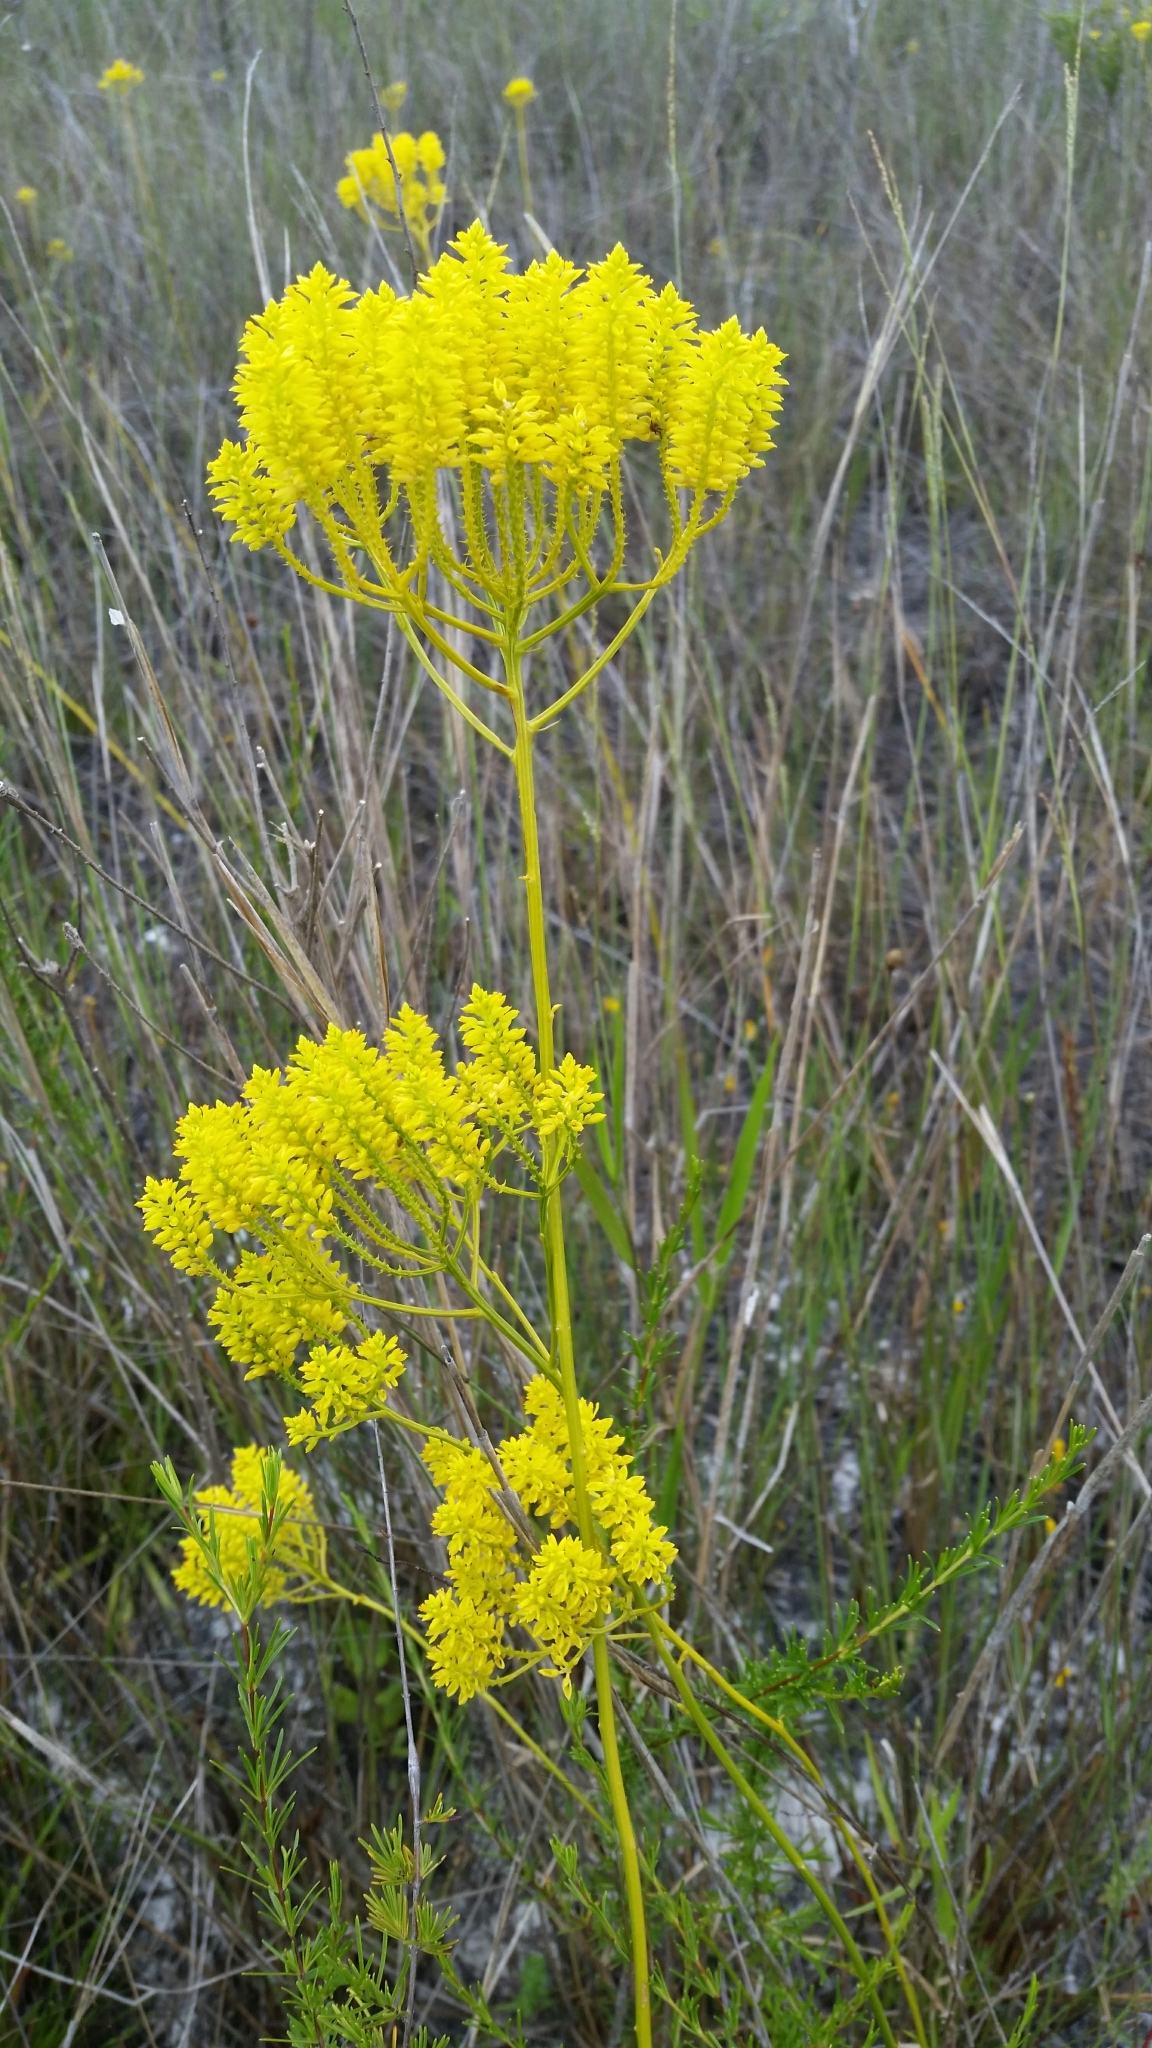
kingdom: Plantae
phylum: Tracheophyta
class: Magnoliopsida
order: Fabales
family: Polygalaceae
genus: Polygala
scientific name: Polygala cymosa
